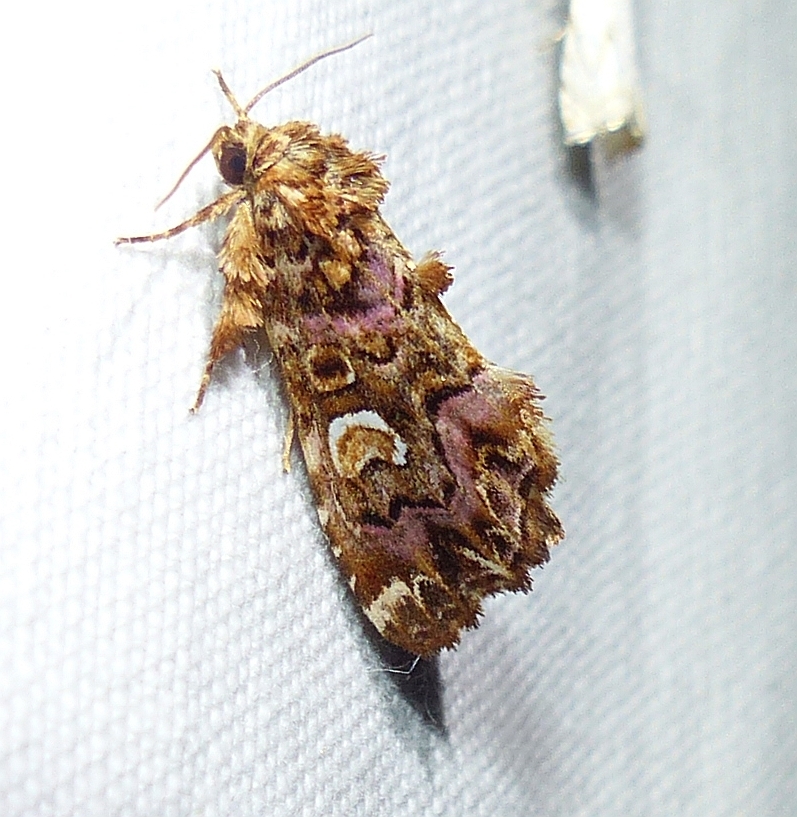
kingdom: Animalia
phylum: Arthropoda
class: Insecta
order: Lepidoptera
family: Noctuidae
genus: Callopistria
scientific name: Callopistria mollissima
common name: Pink-shaded fern moth
